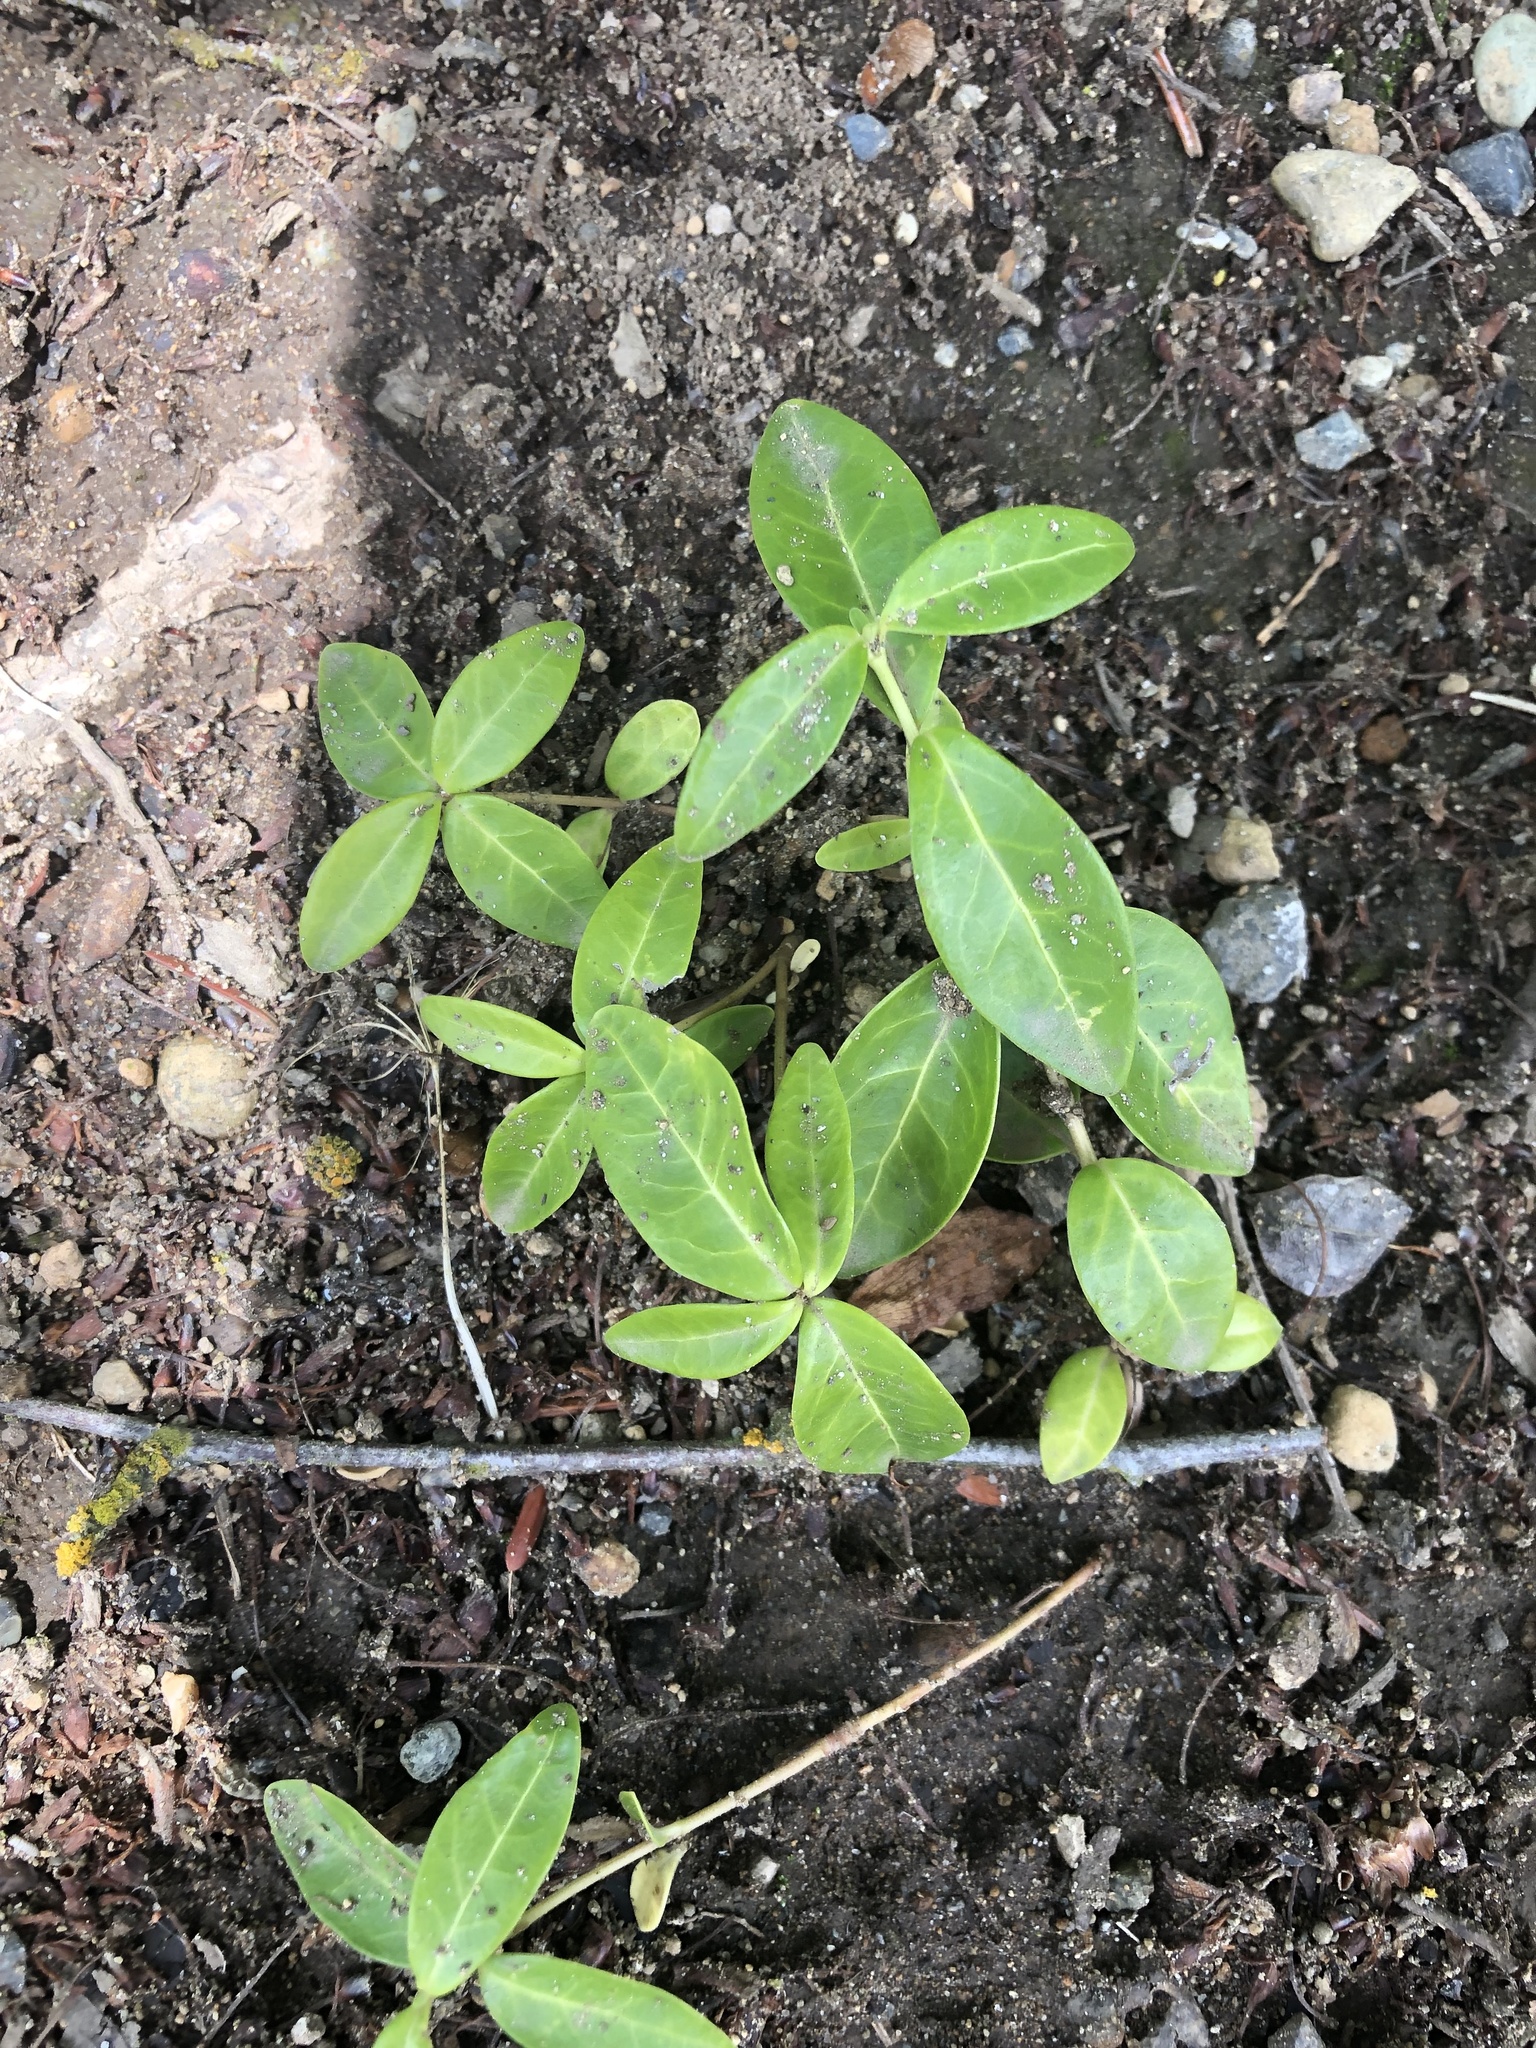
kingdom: Plantae
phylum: Tracheophyta
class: Magnoliopsida
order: Gentianales
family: Apocynaceae
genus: Vinca
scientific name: Vinca minor
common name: Lesser periwinkle
